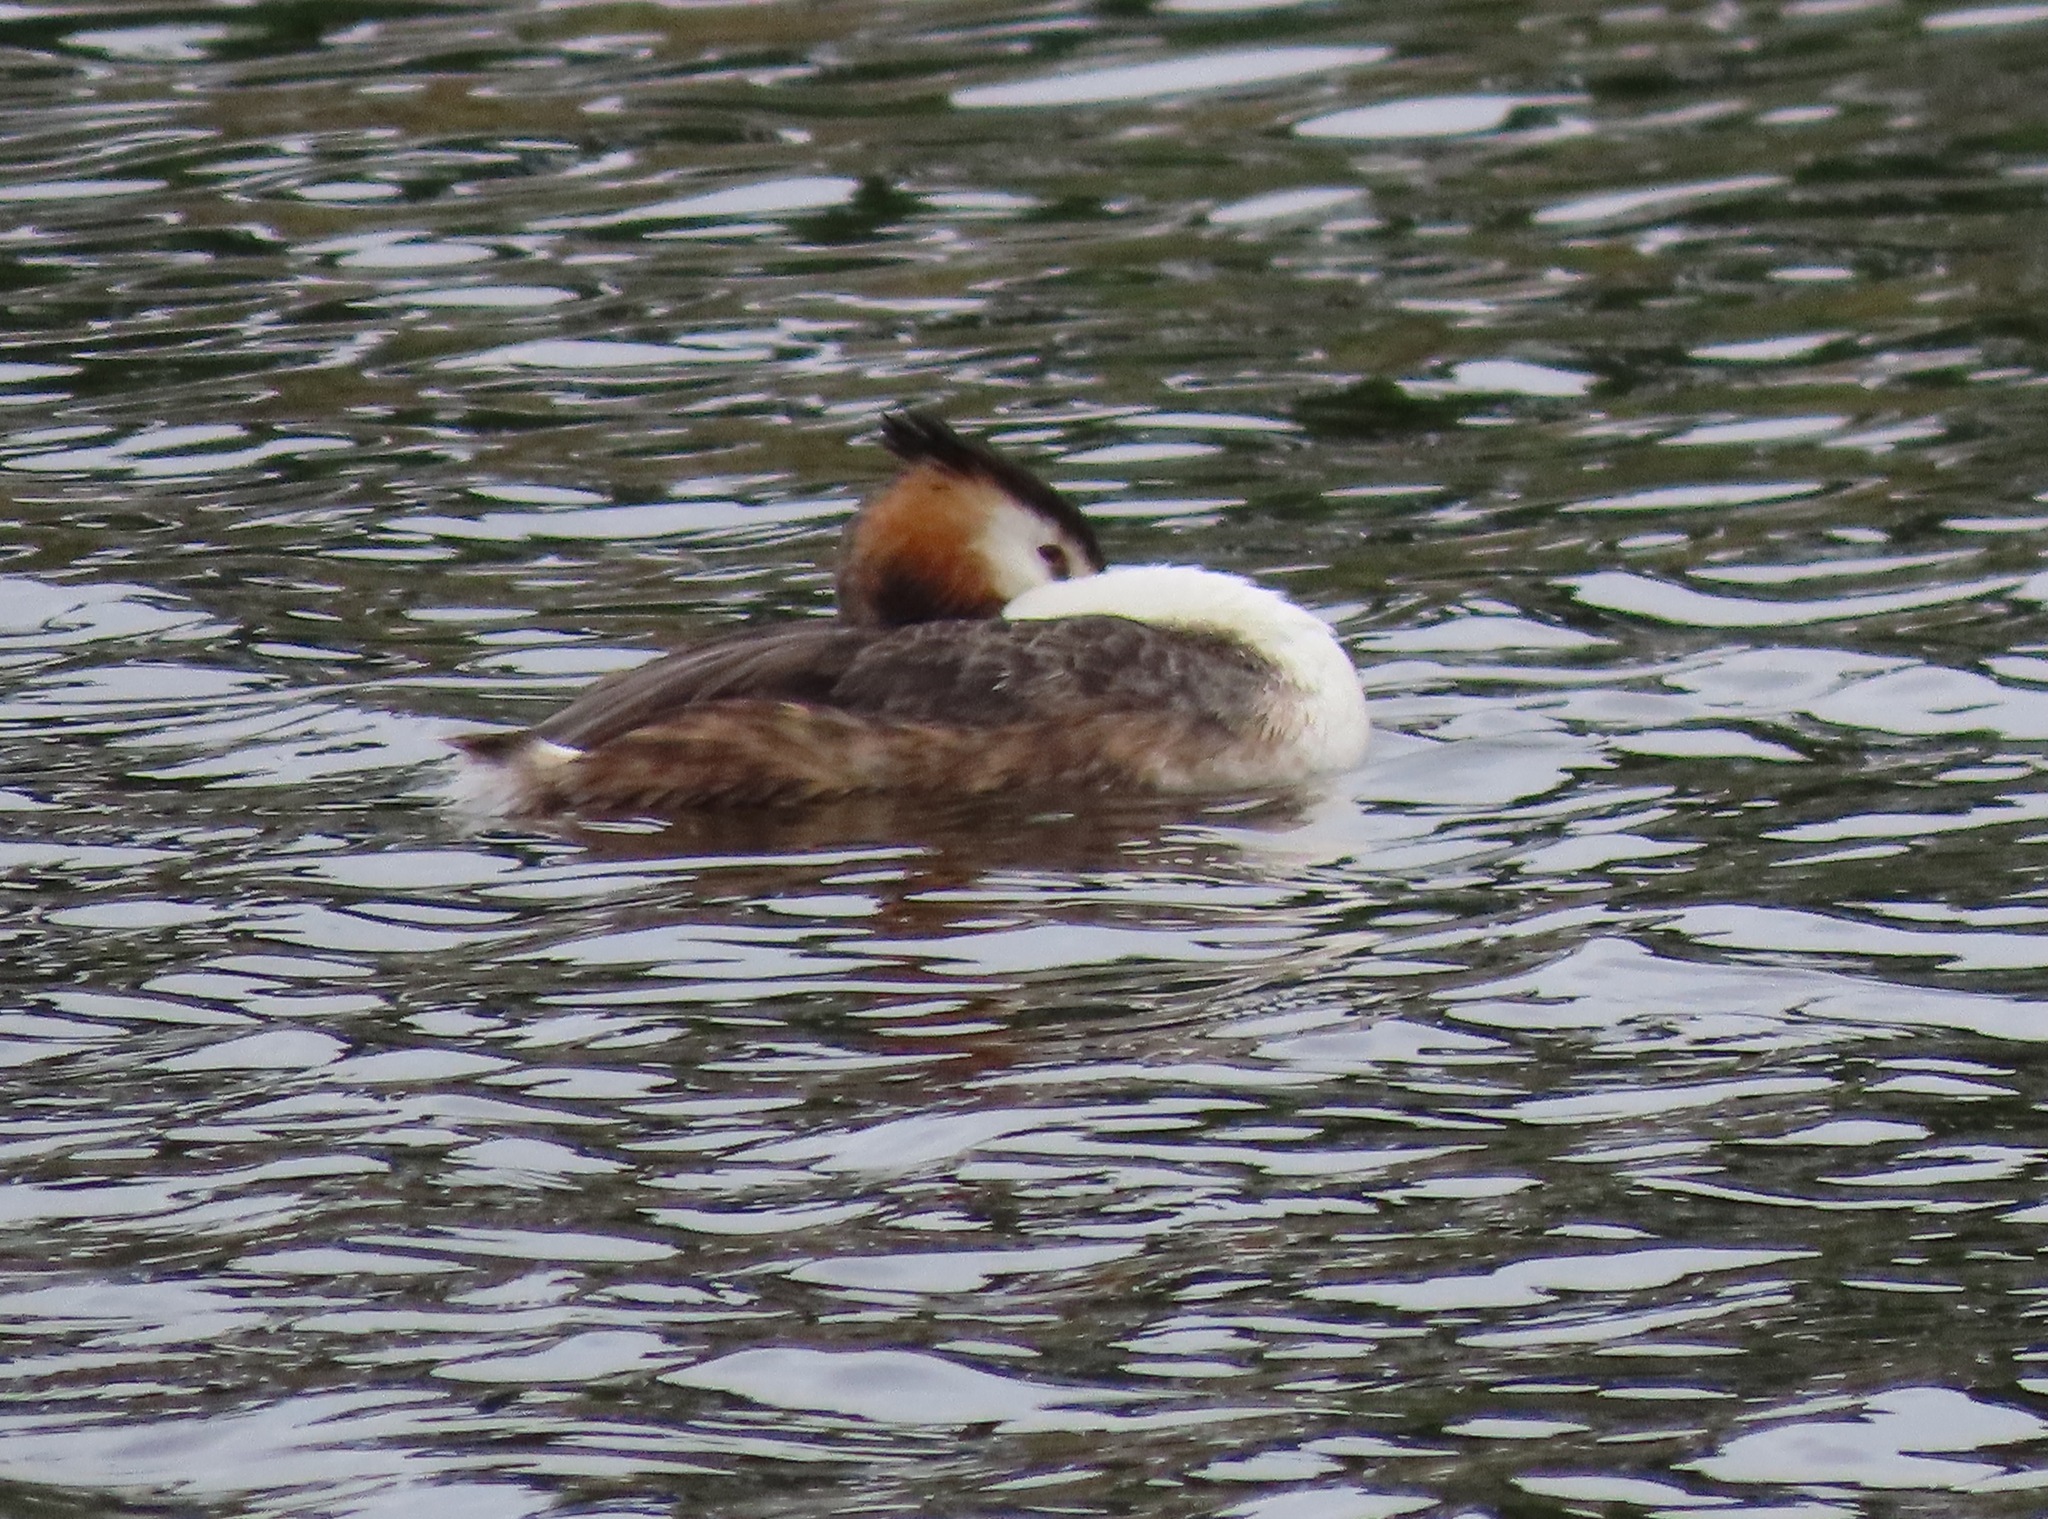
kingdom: Animalia
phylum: Chordata
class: Aves
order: Podicipediformes
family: Podicipedidae
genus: Podiceps
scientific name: Podiceps cristatus
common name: Great crested grebe
